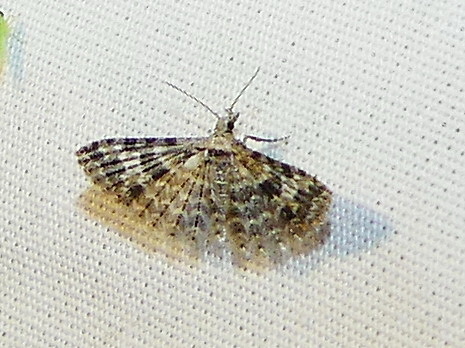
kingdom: Animalia
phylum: Arthropoda
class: Insecta
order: Lepidoptera
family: Alucitidae
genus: Alucita
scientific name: Alucita
